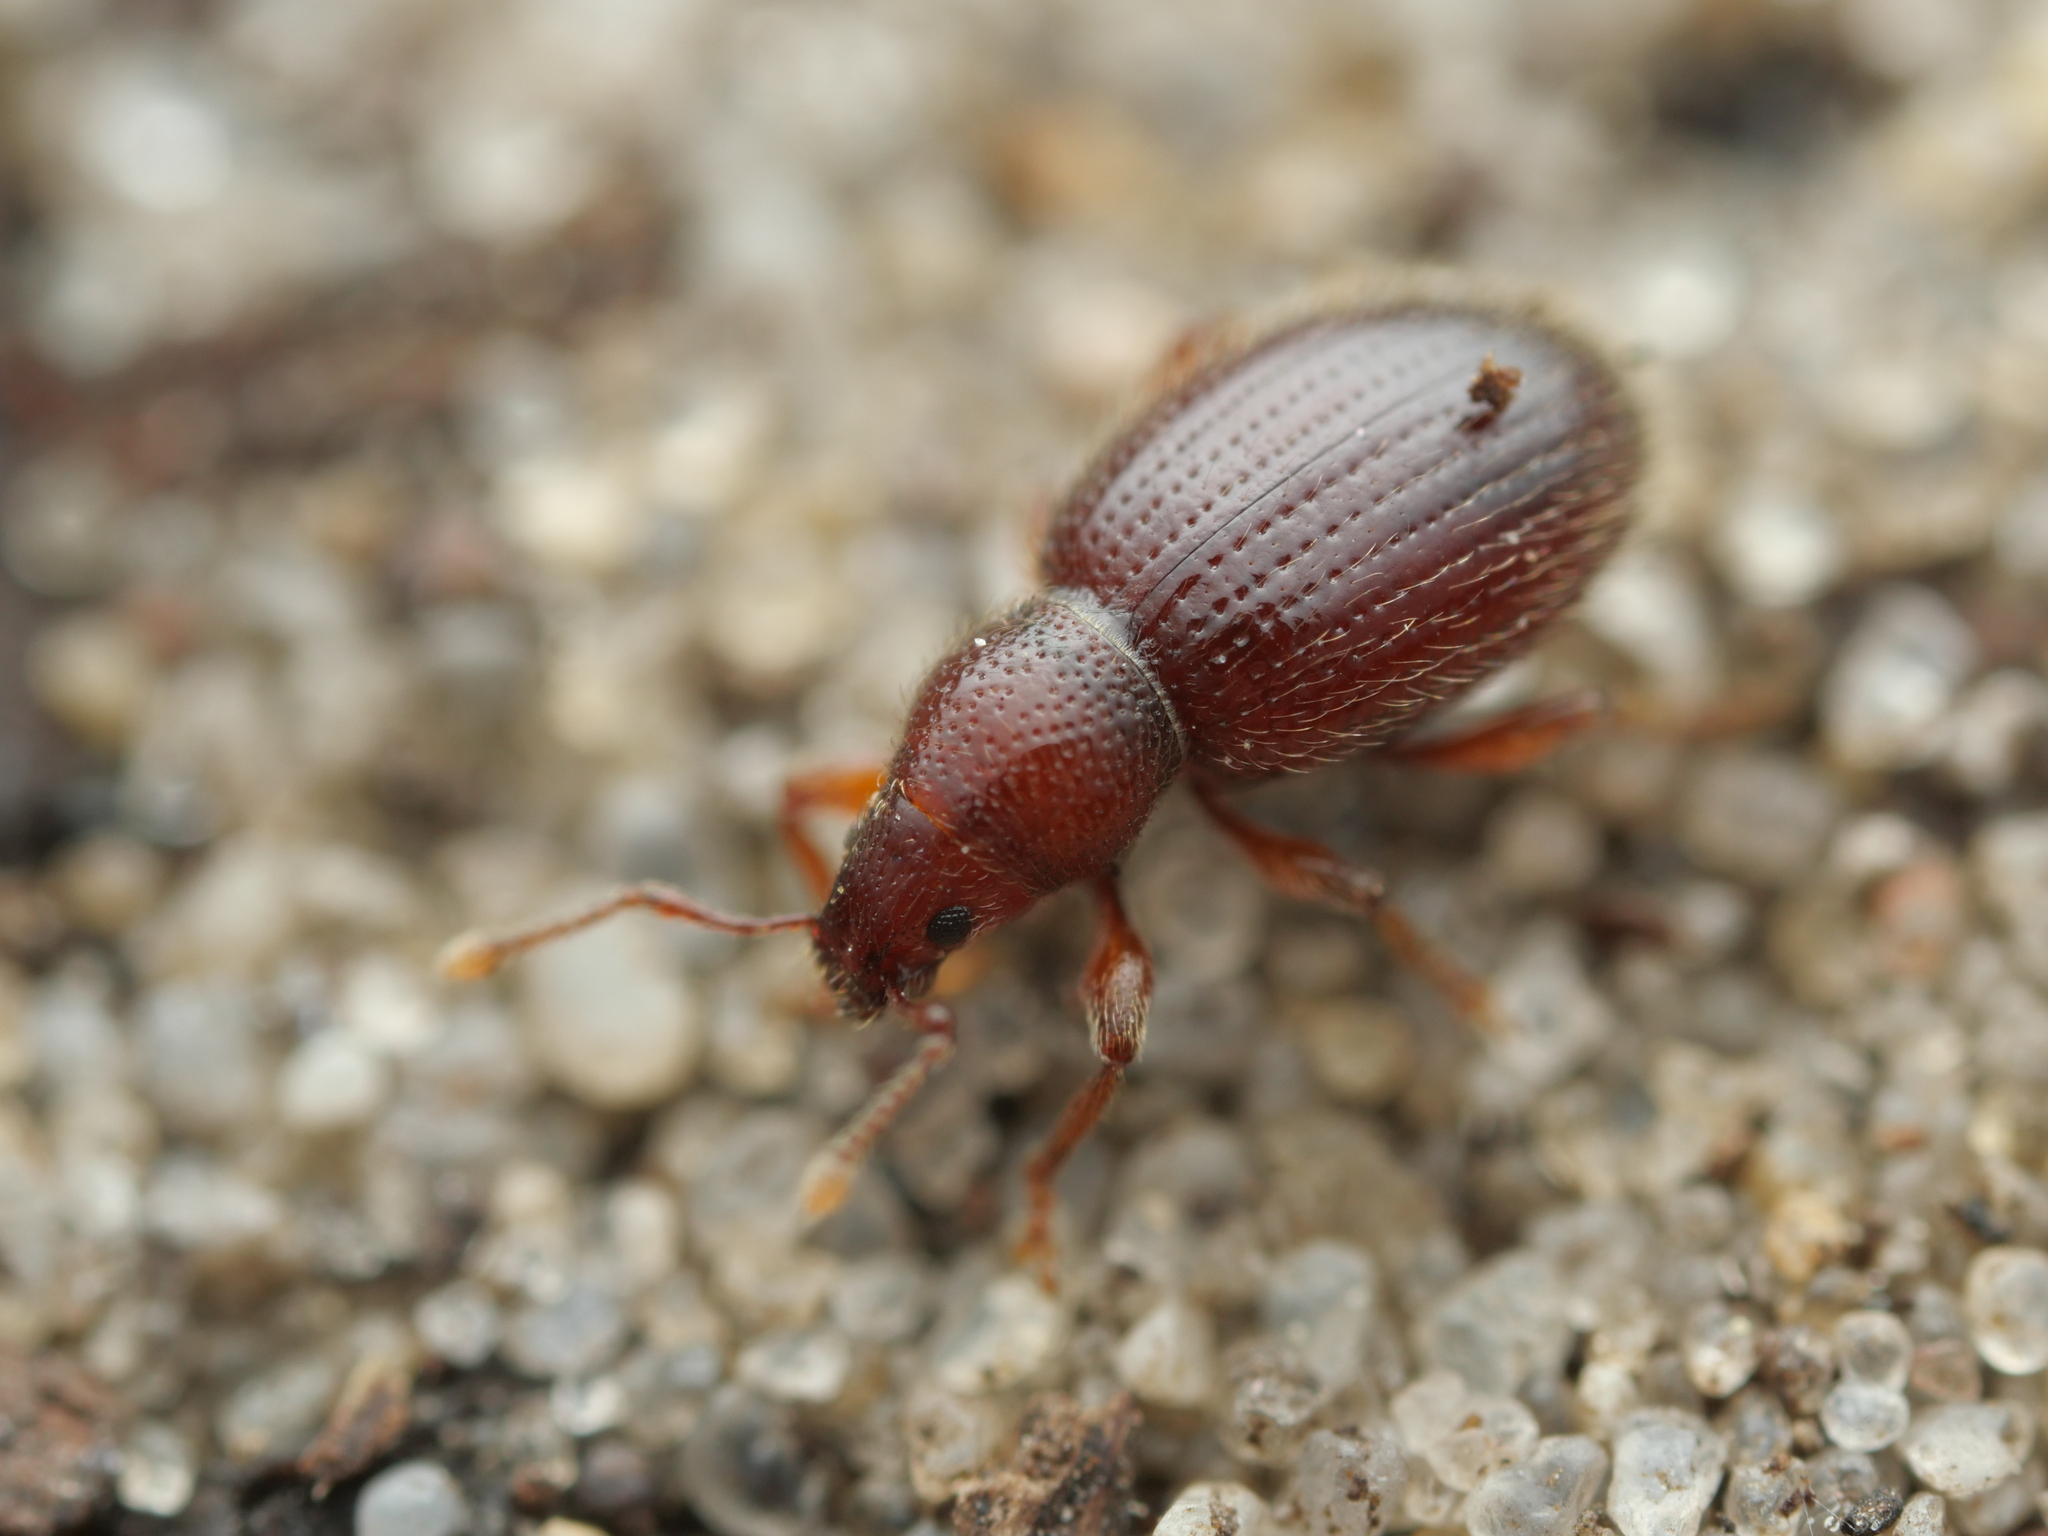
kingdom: Animalia
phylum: Arthropoda
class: Insecta
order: Coleoptera
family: Curculionidae
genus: Exomias
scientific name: Exomias pellucidus
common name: Hairy spider weevil
